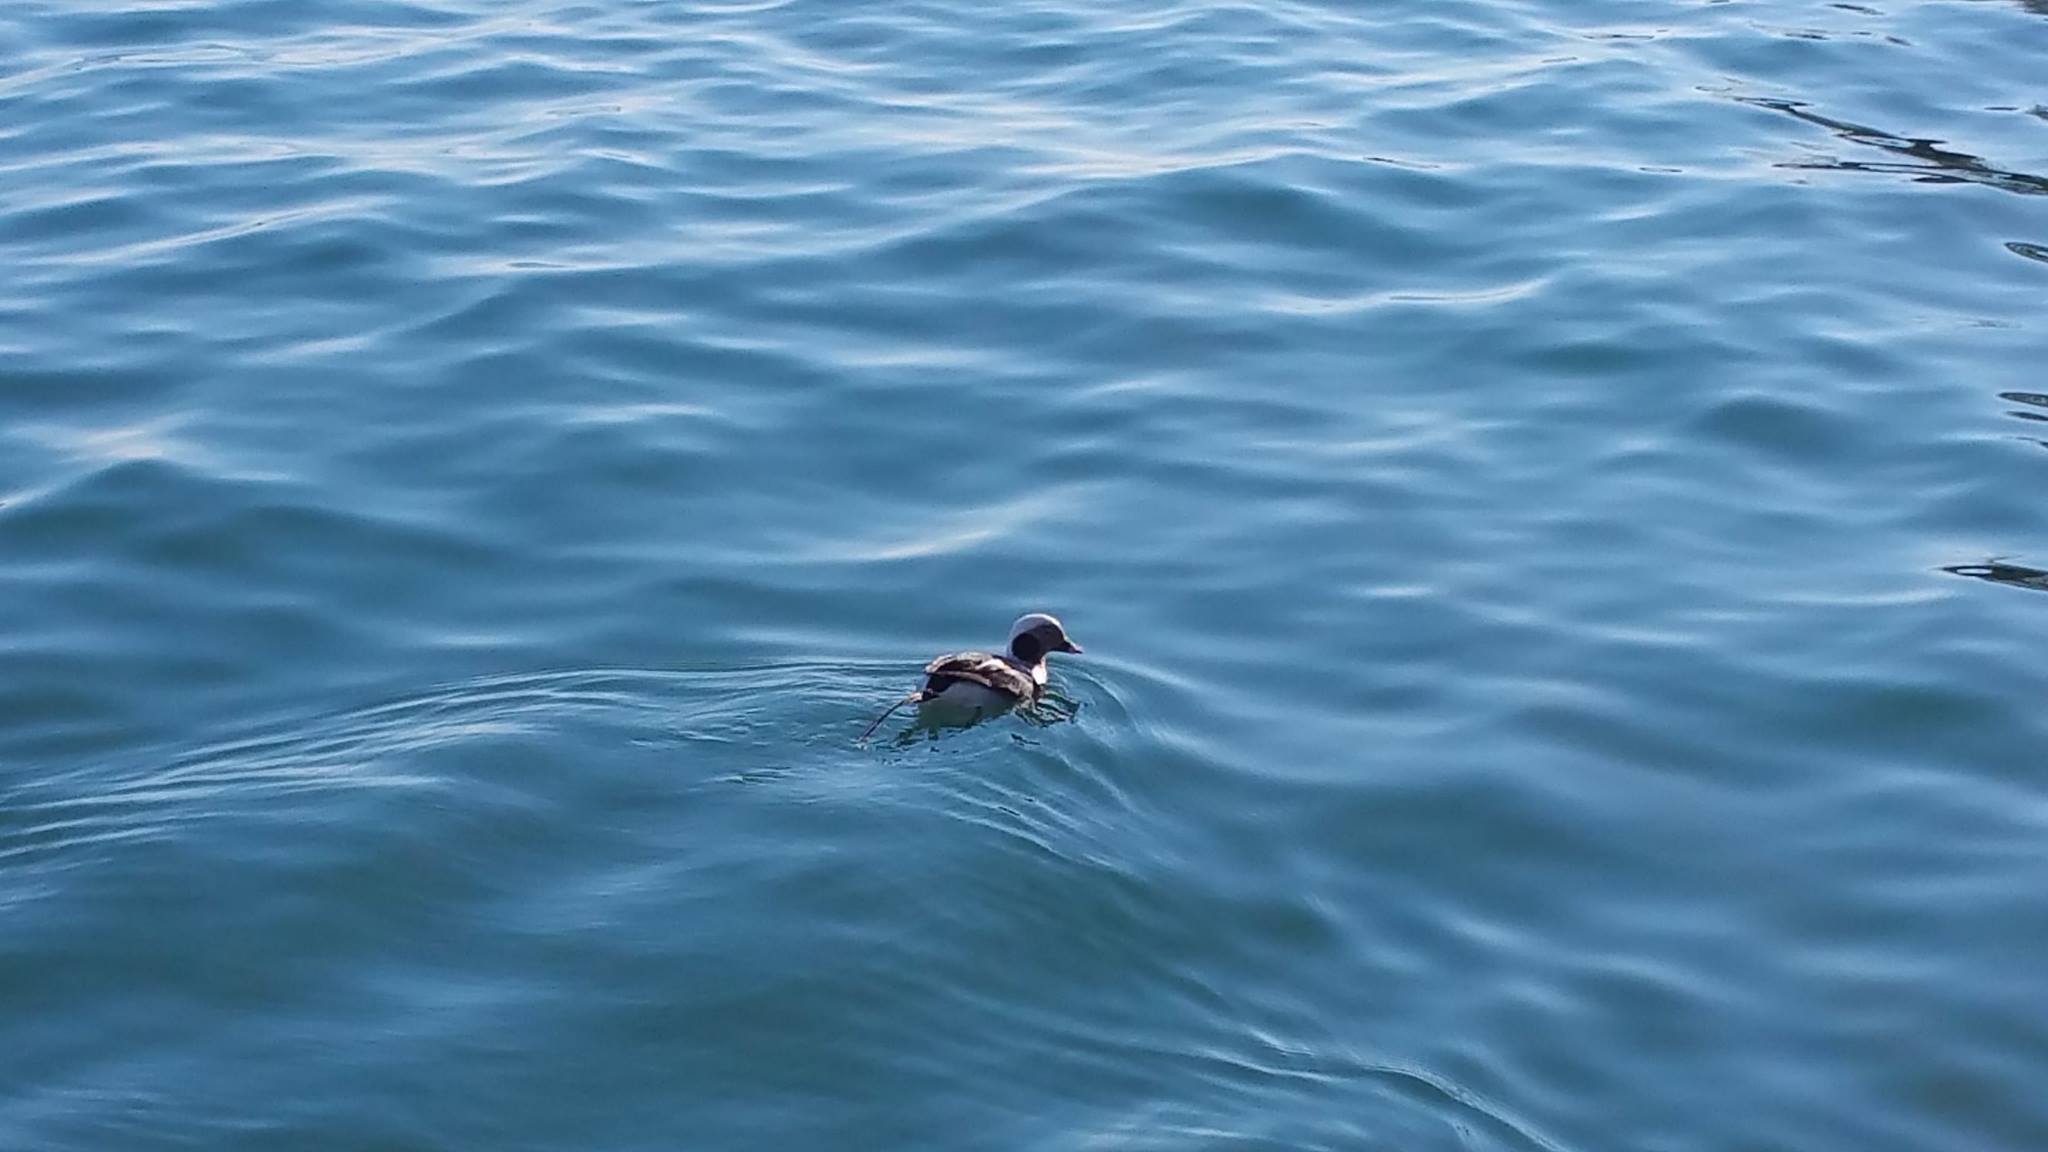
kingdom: Animalia
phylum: Chordata
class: Aves
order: Anseriformes
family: Anatidae
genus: Clangula
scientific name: Clangula hyemalis
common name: Long-tailed duck
